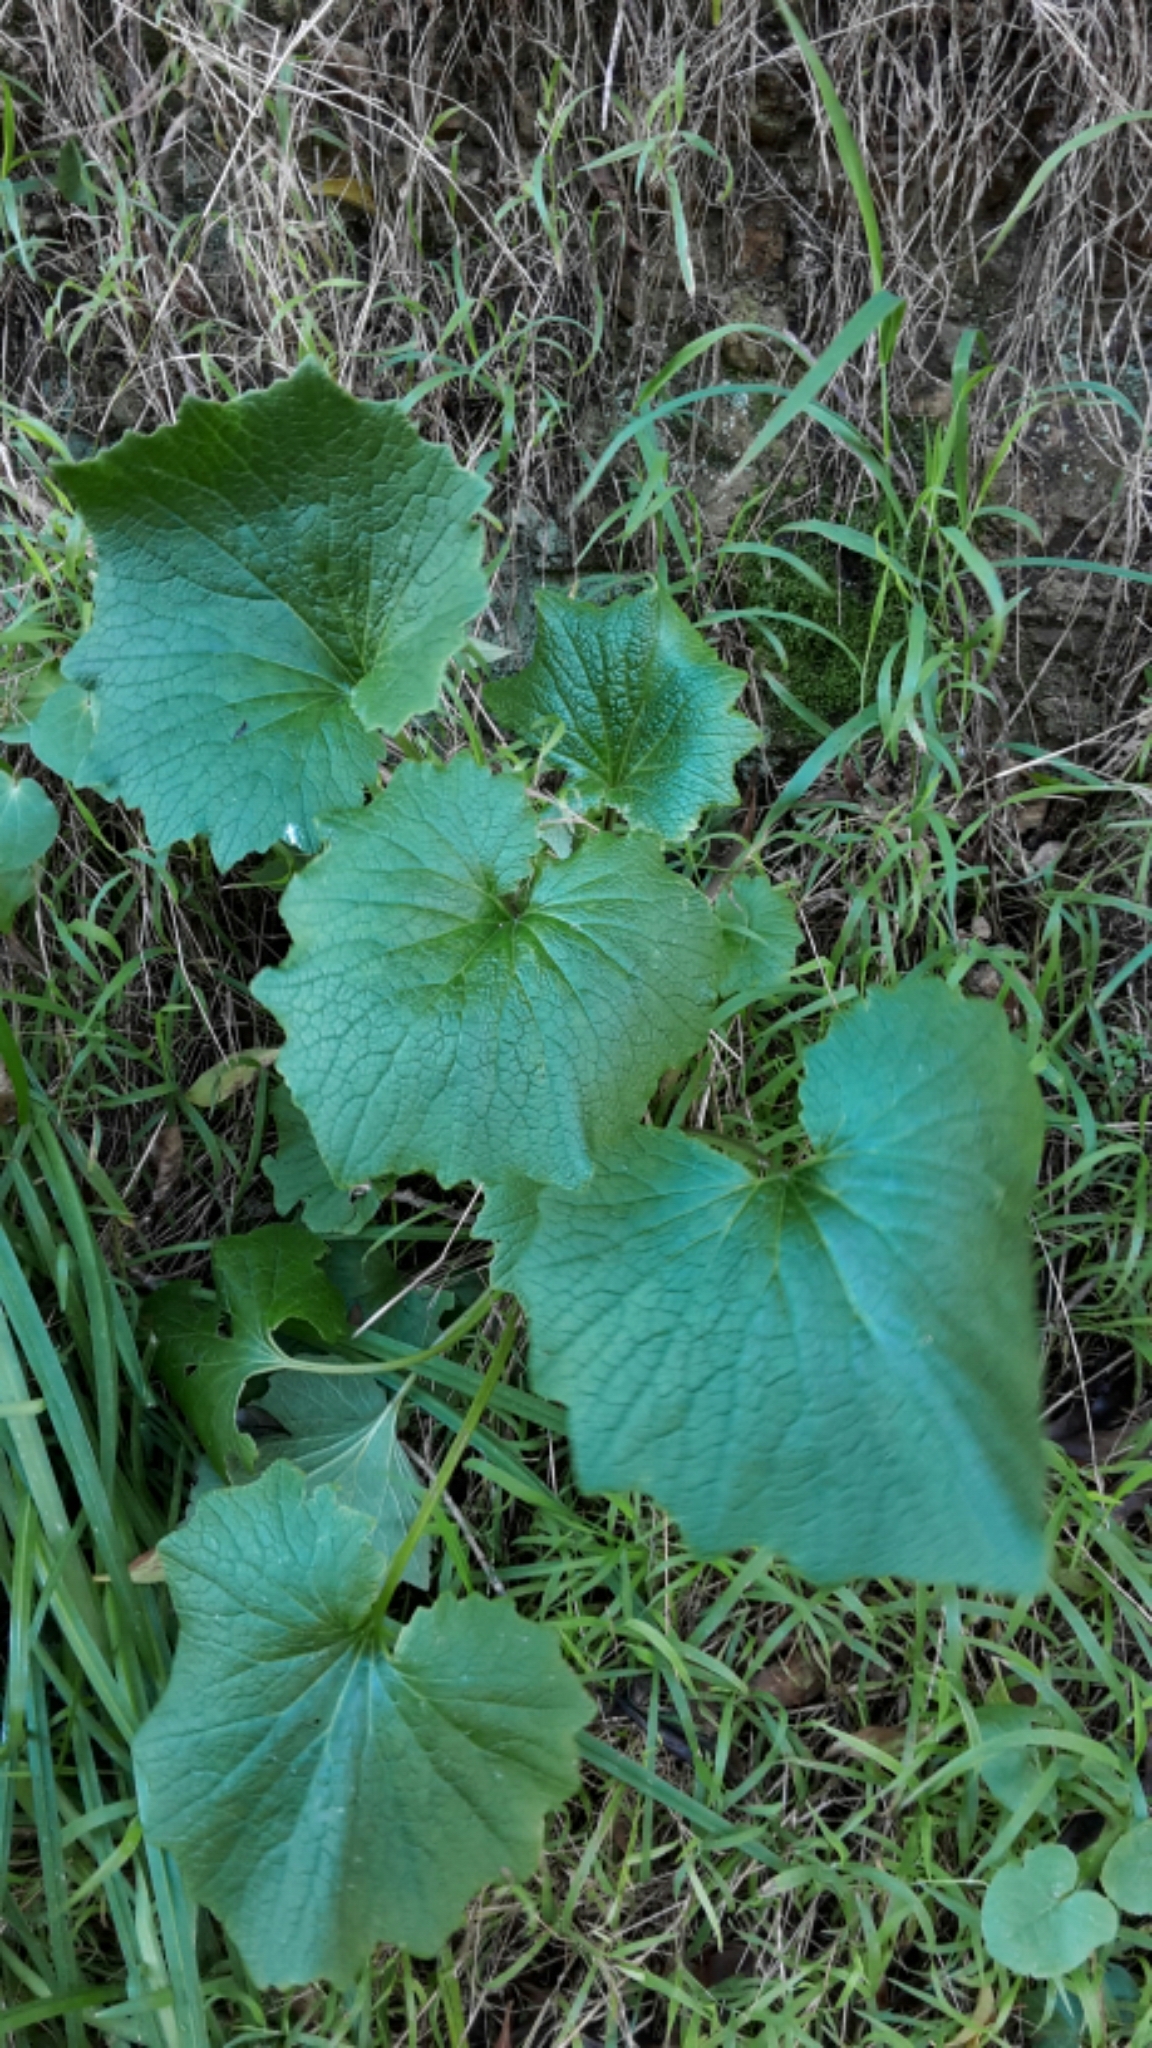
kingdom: Plantae
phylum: Tracheophyta
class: Magnoliopsida
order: Asterales
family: Asteraceae
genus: Pericallis
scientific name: Pericallis hybrida
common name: Cineraria
